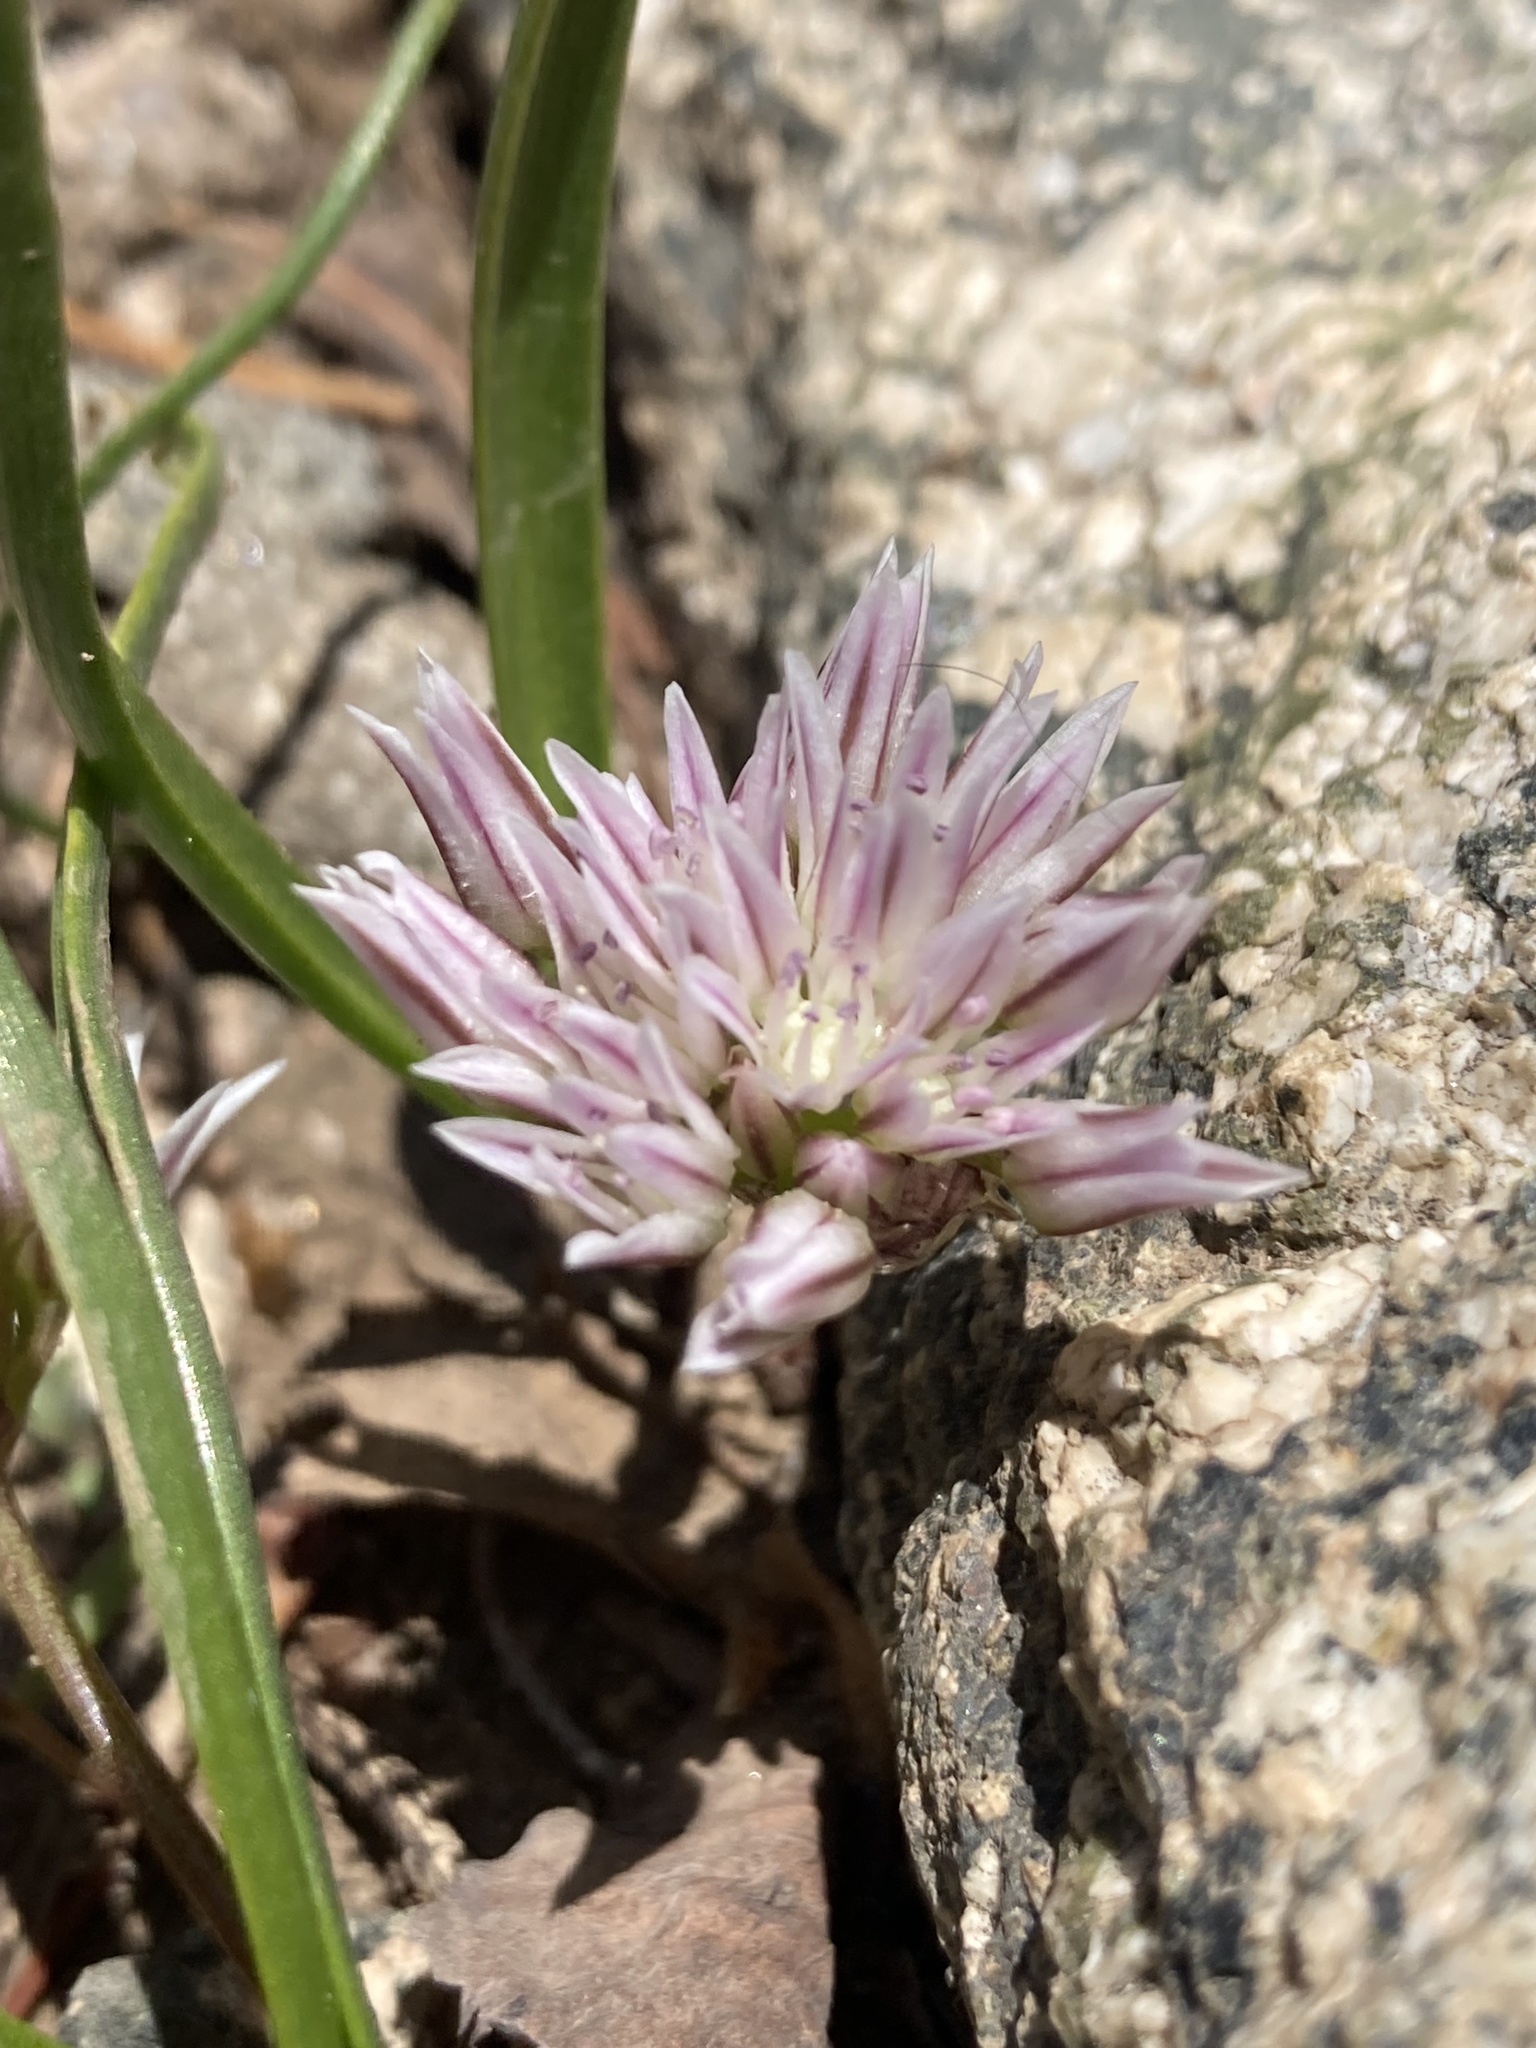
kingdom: Plantae
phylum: Tracheophyta
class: Liliopsida
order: Asparagales
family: Amaryllidaceae
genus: Allium
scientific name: Allium brandegeei
